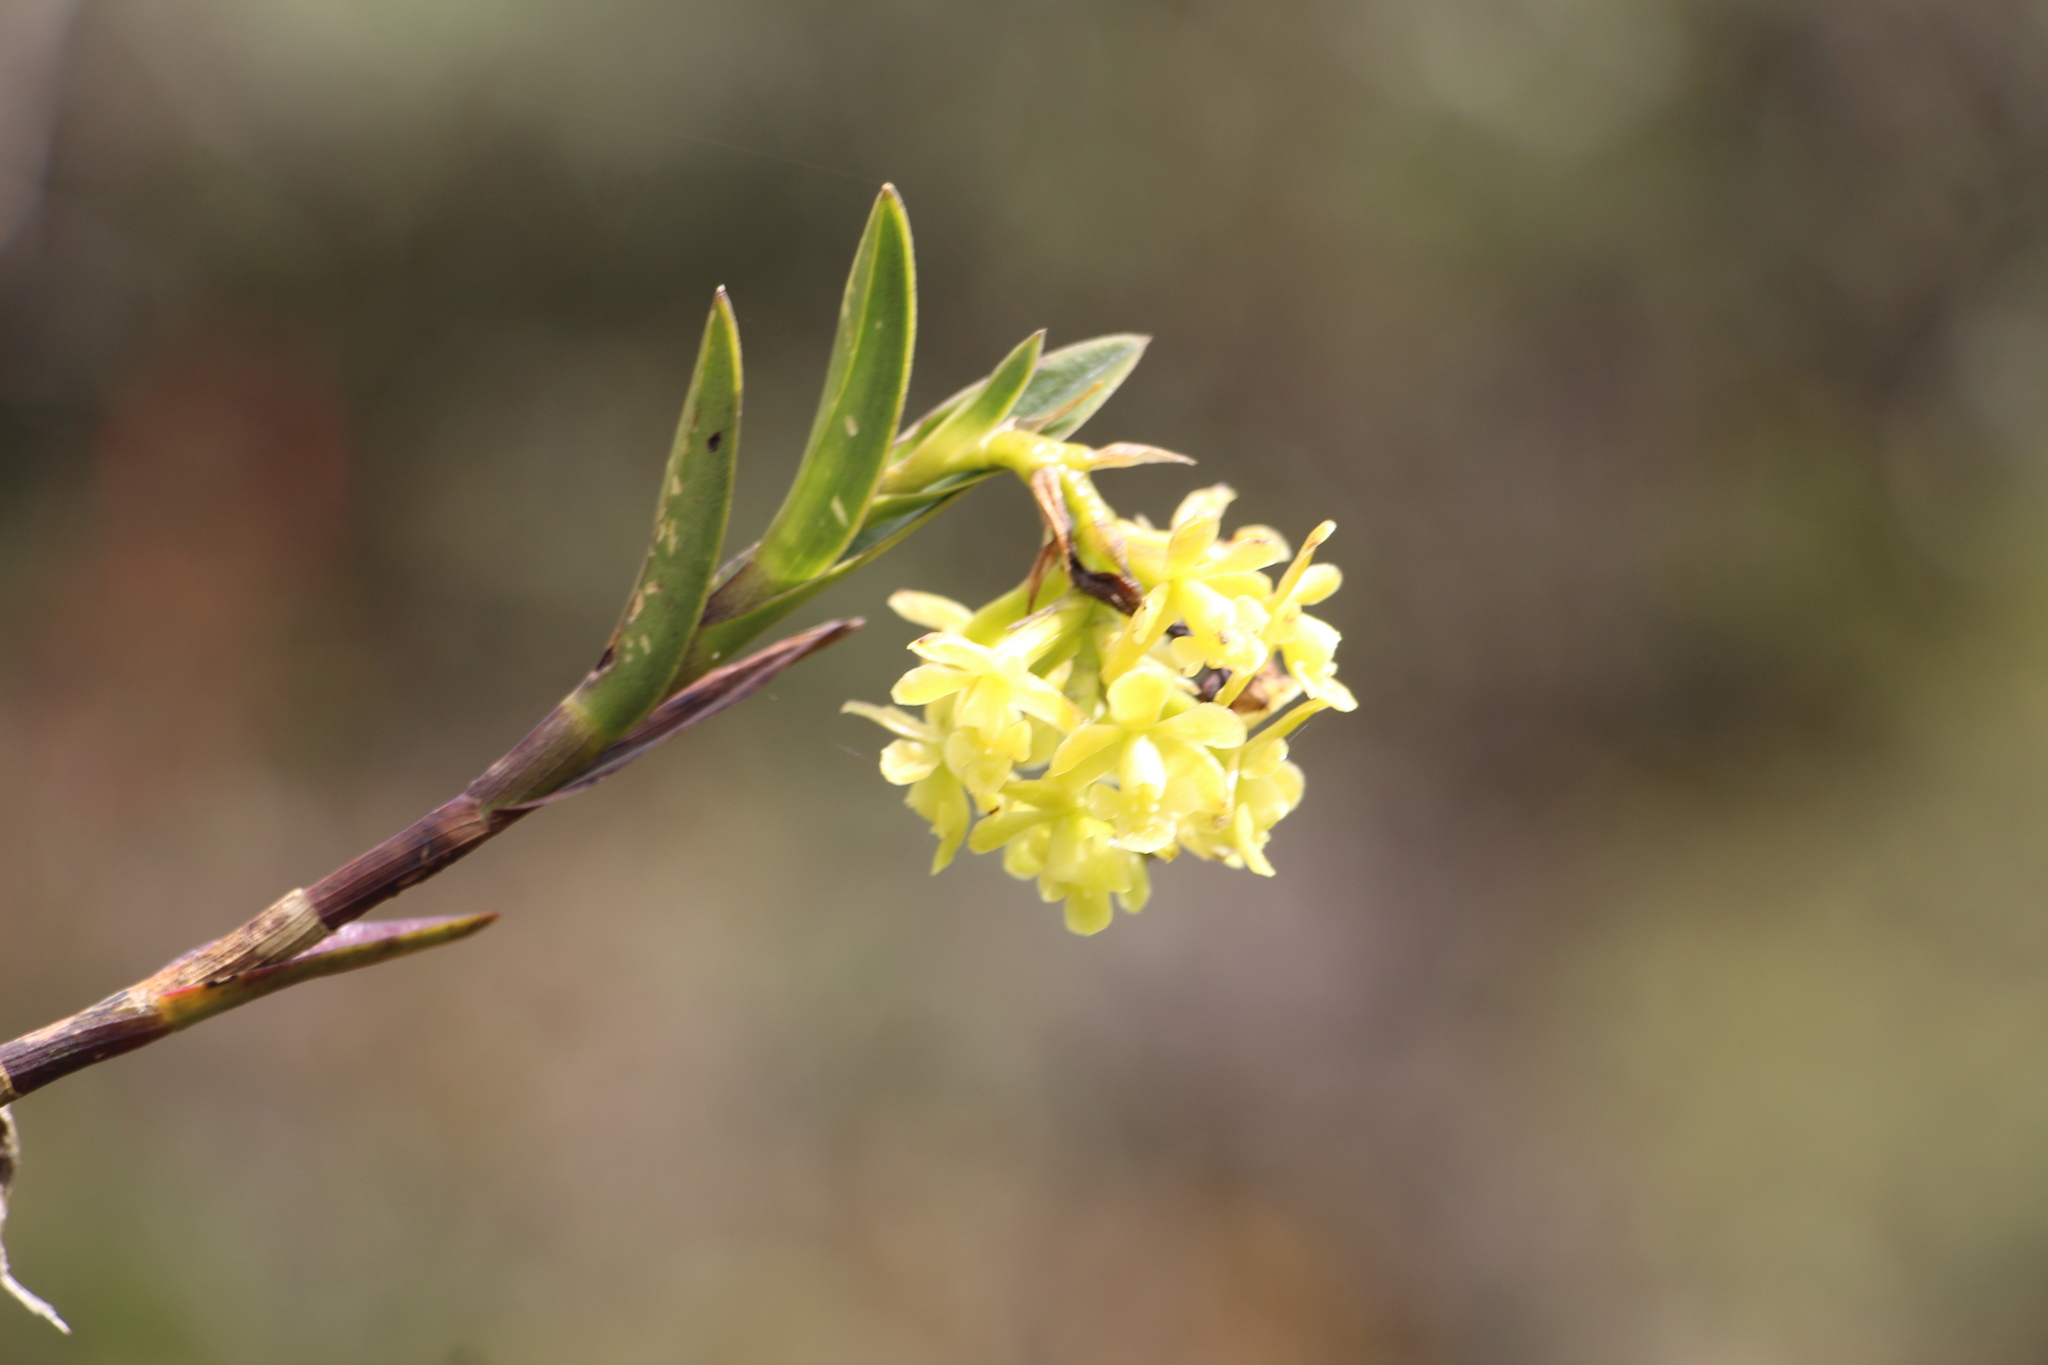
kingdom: Plantae
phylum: Tracheophyta
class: Liliopsida
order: Asparagales
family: Orchidaceae
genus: Epidendrum
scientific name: Epidendrum zipaquiranum
